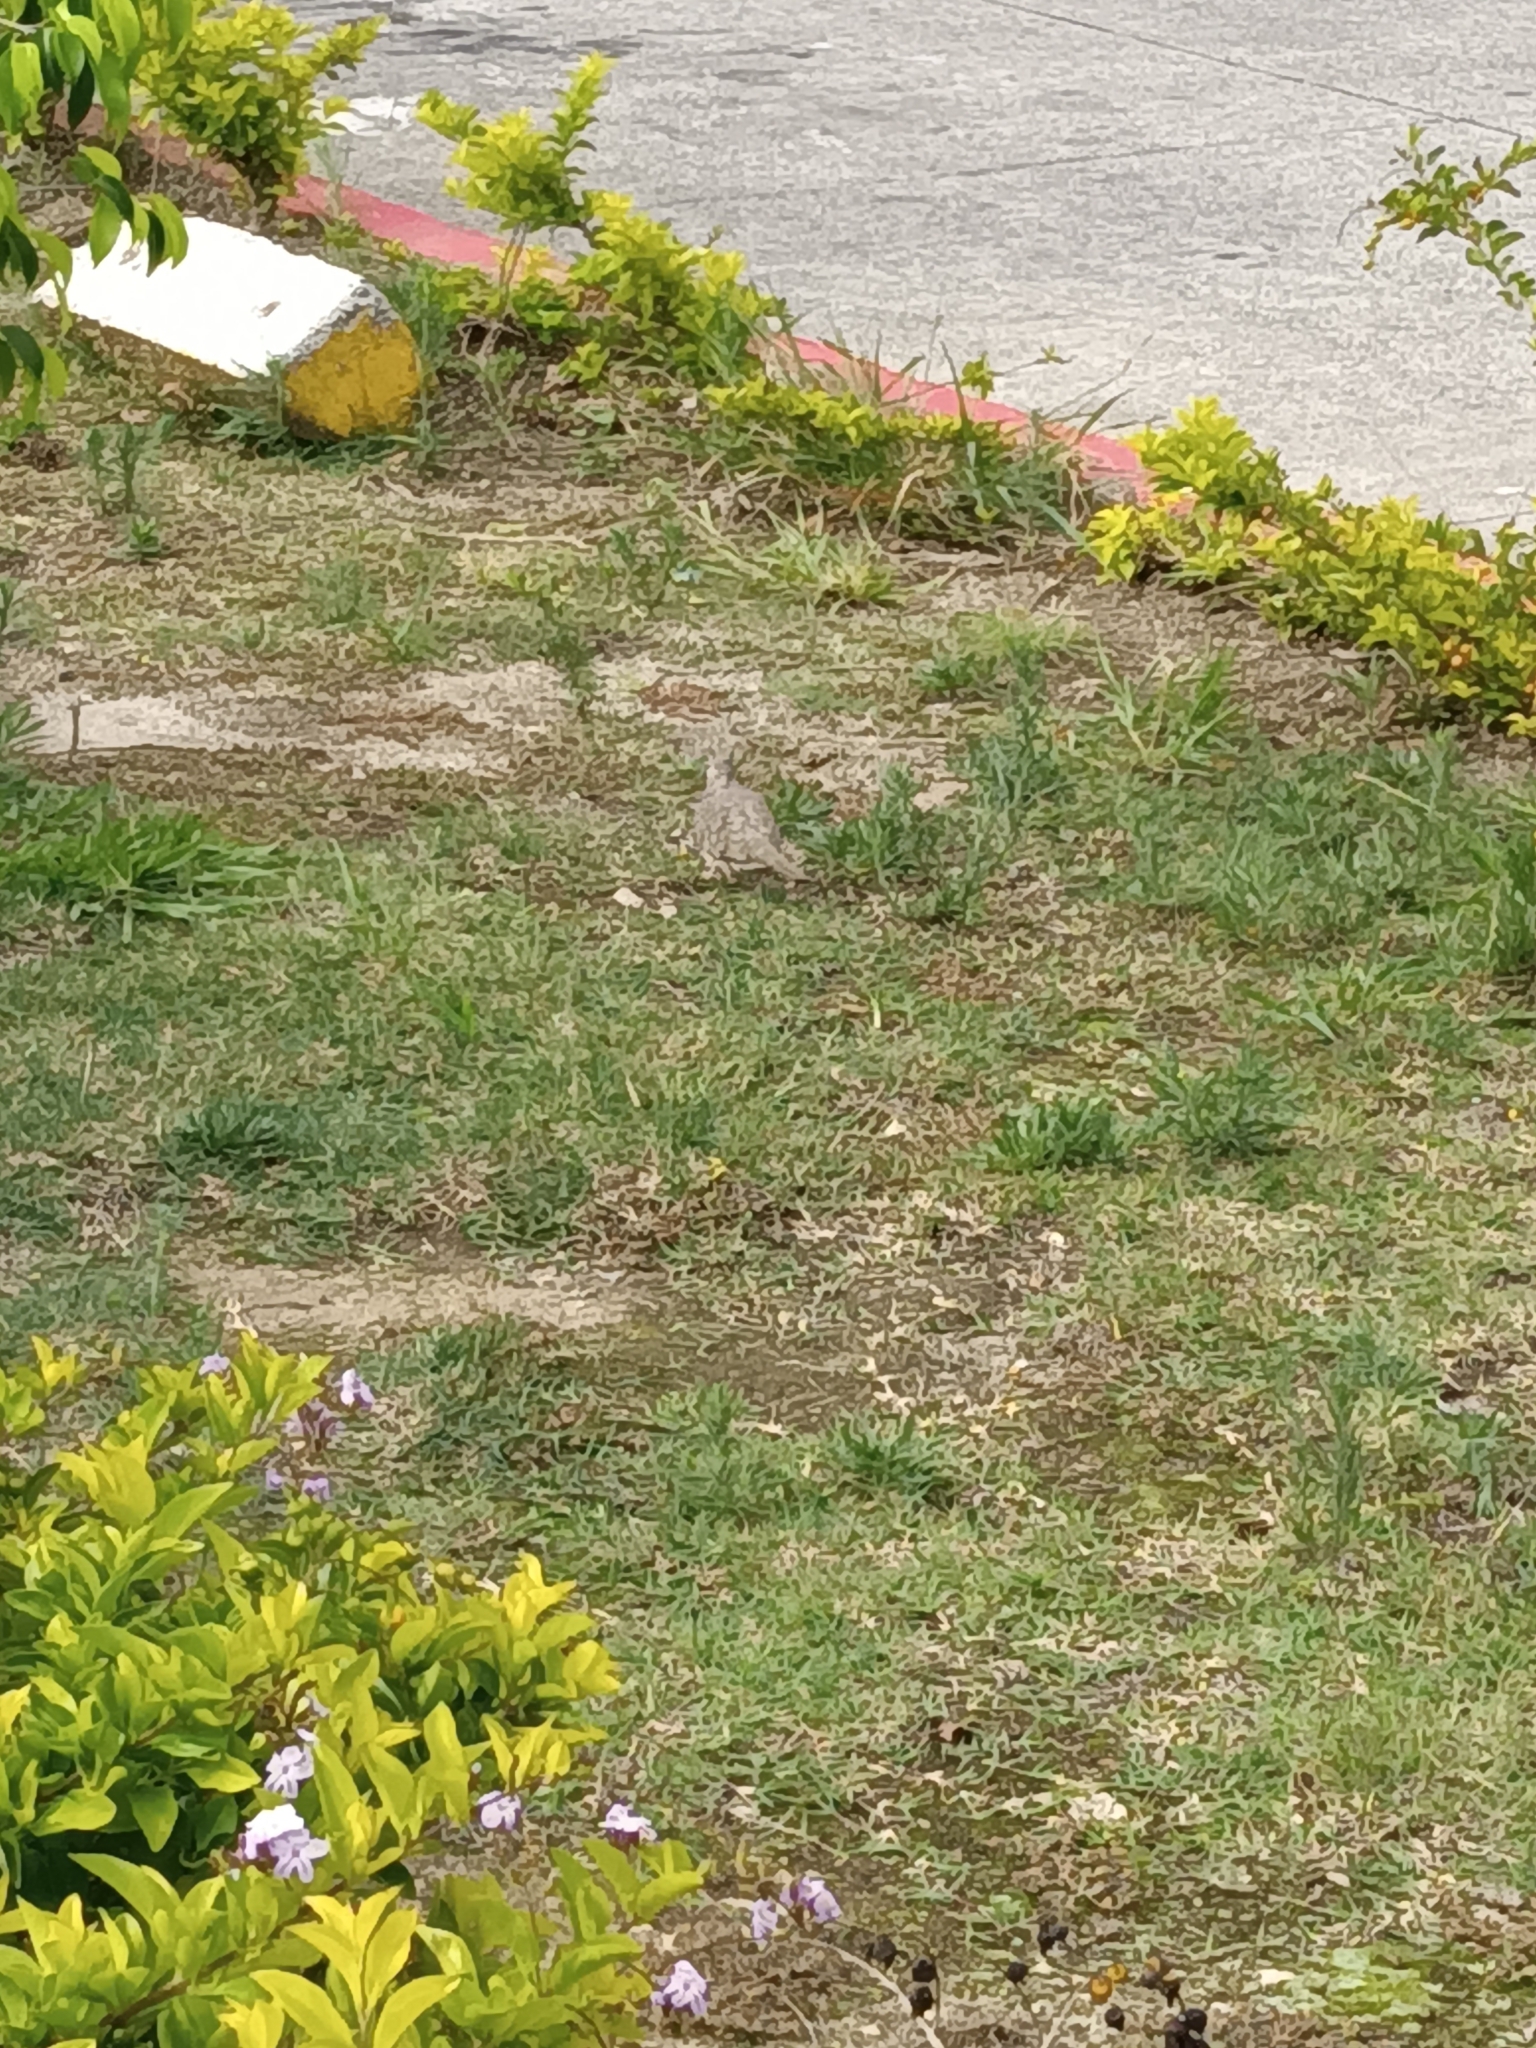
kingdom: Animalia
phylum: Chordata
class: Aves
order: Columbiformes
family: Columbidae
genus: Columbina
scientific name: Columbina inca
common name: Inca dove
